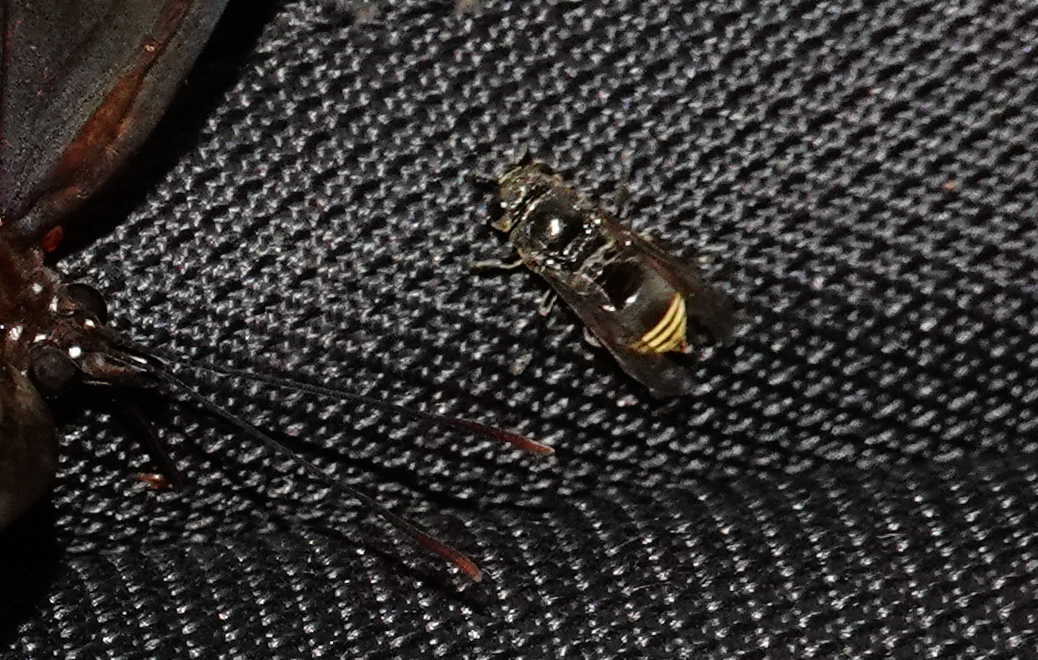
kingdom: Animalia
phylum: Arthropoda
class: Insecta
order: Hymenoptera
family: Vespidae
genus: Brachygastra
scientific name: Brachygastra augusti
